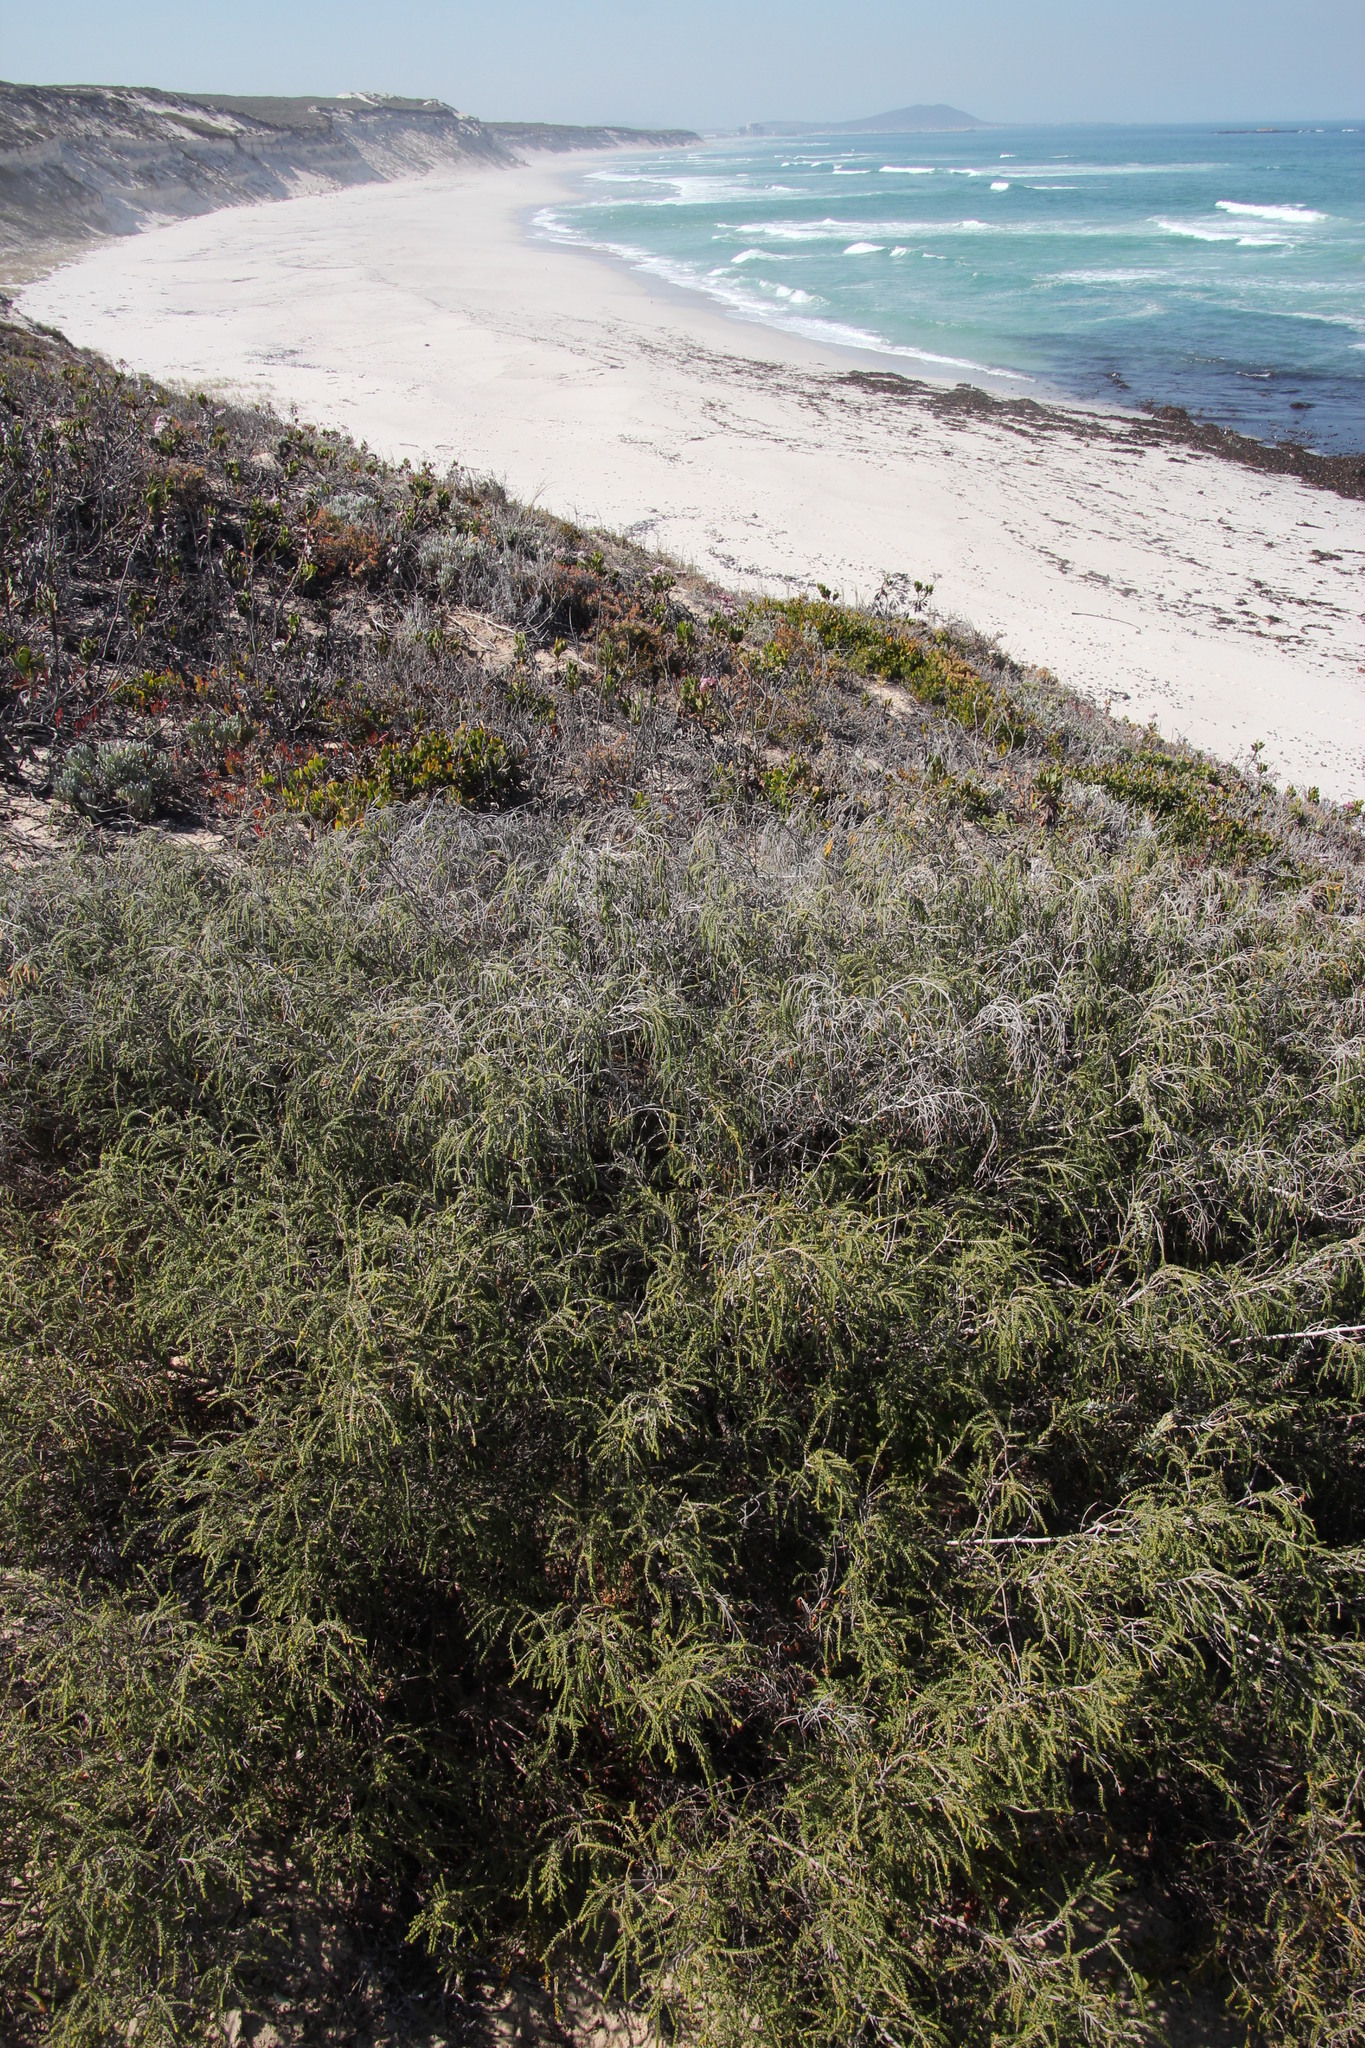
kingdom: Plantae
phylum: Tracheophyta
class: Magnoliopsida
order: Malvales
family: Thymelaeaceae
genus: Passerina
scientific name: Passerina ericoides
